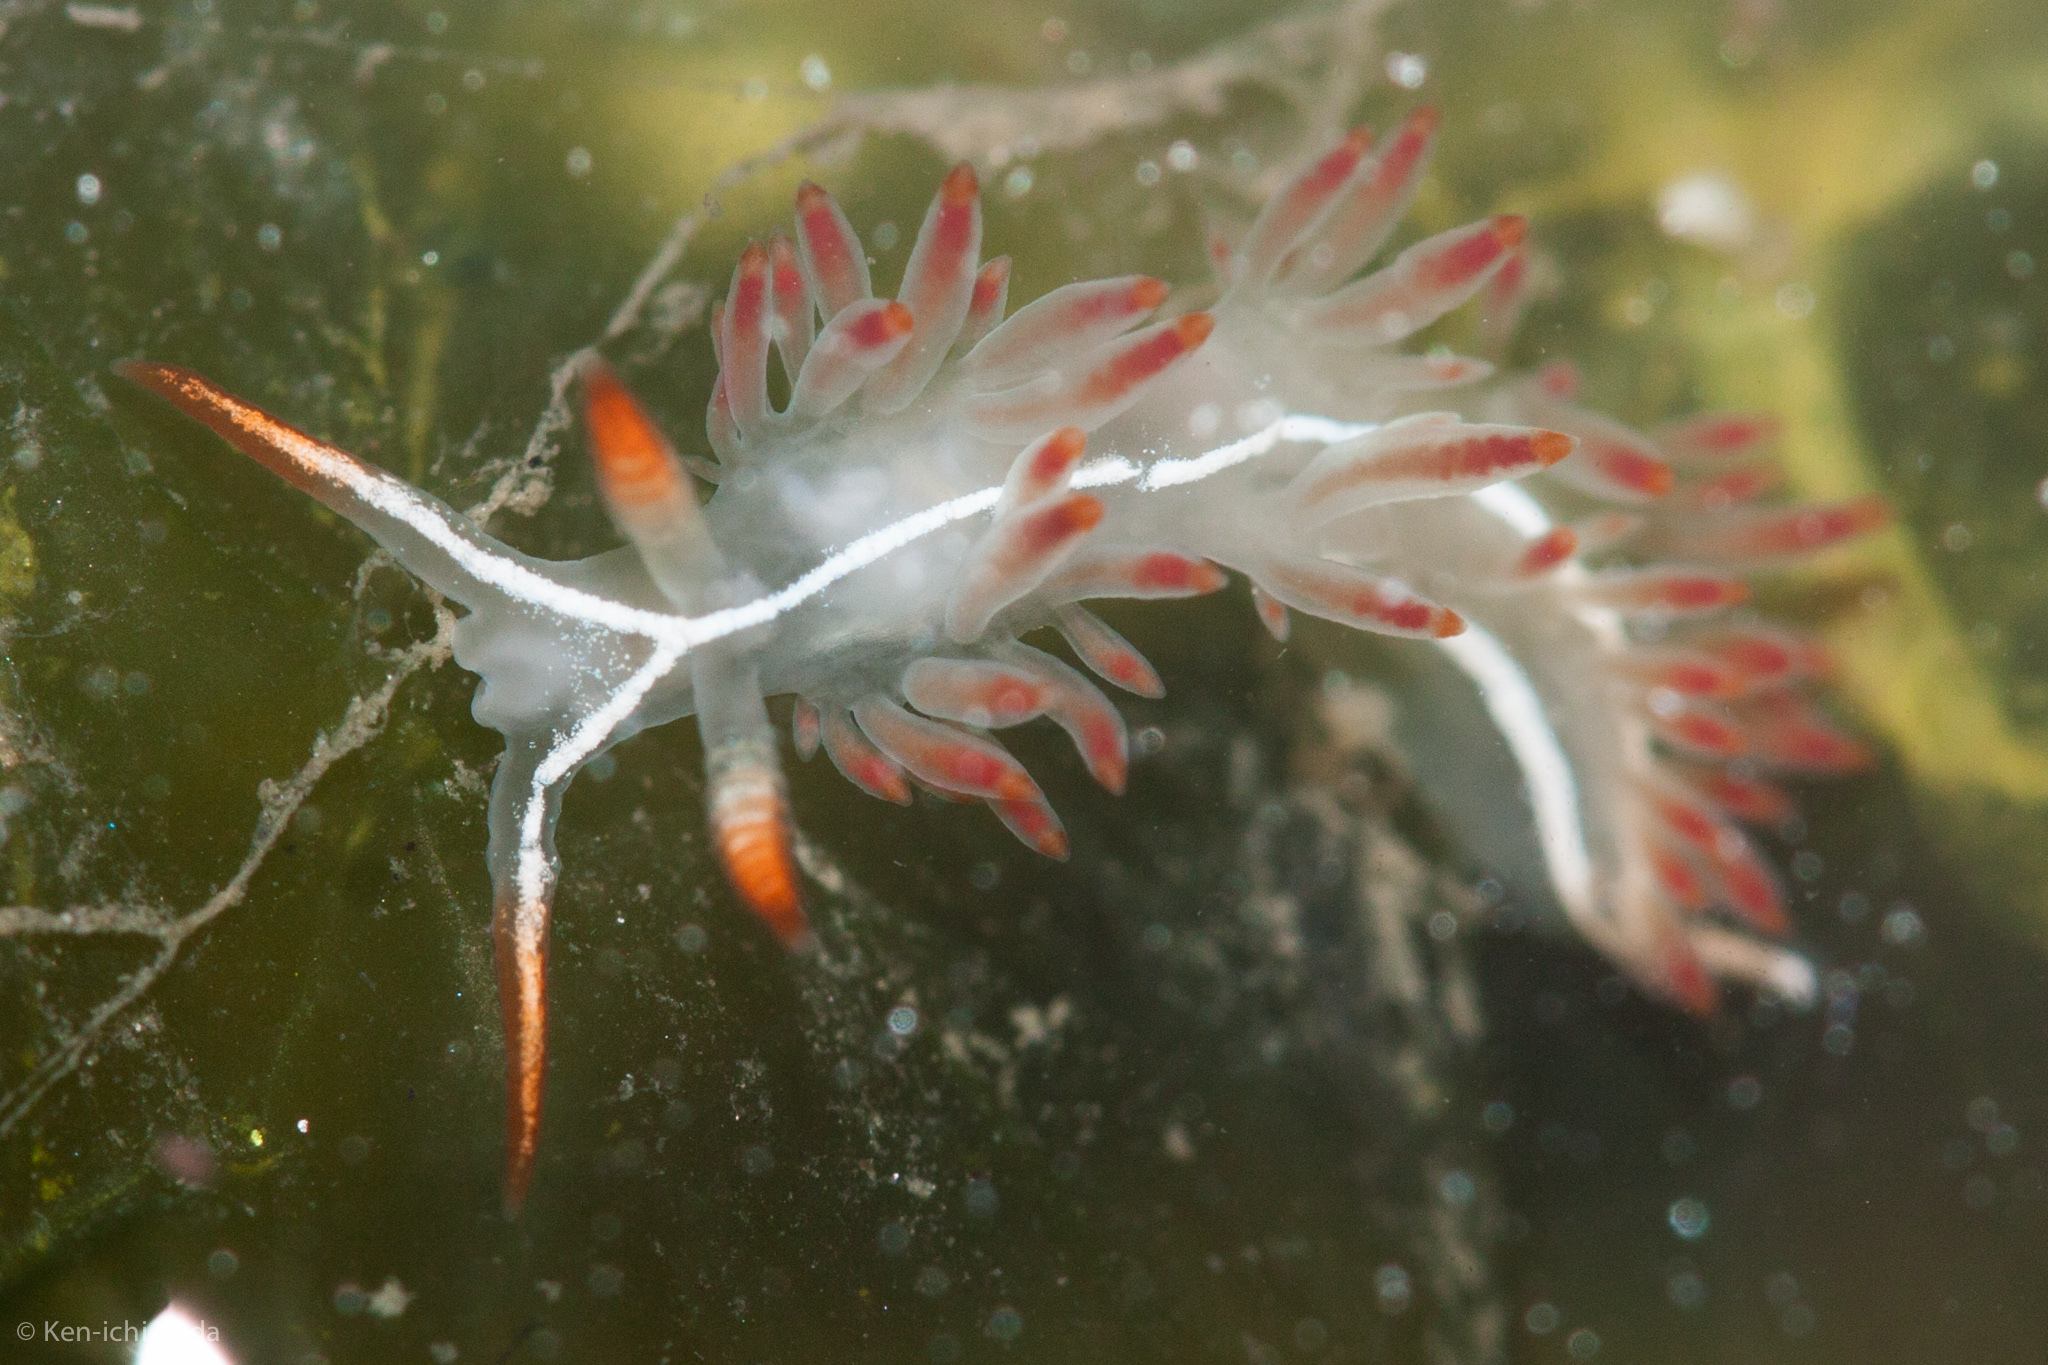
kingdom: Animalia
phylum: Mollusca
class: Gastropoda
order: Nudibranchia
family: Coryphellidae
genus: Coryphella
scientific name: Coryphella trilineata
